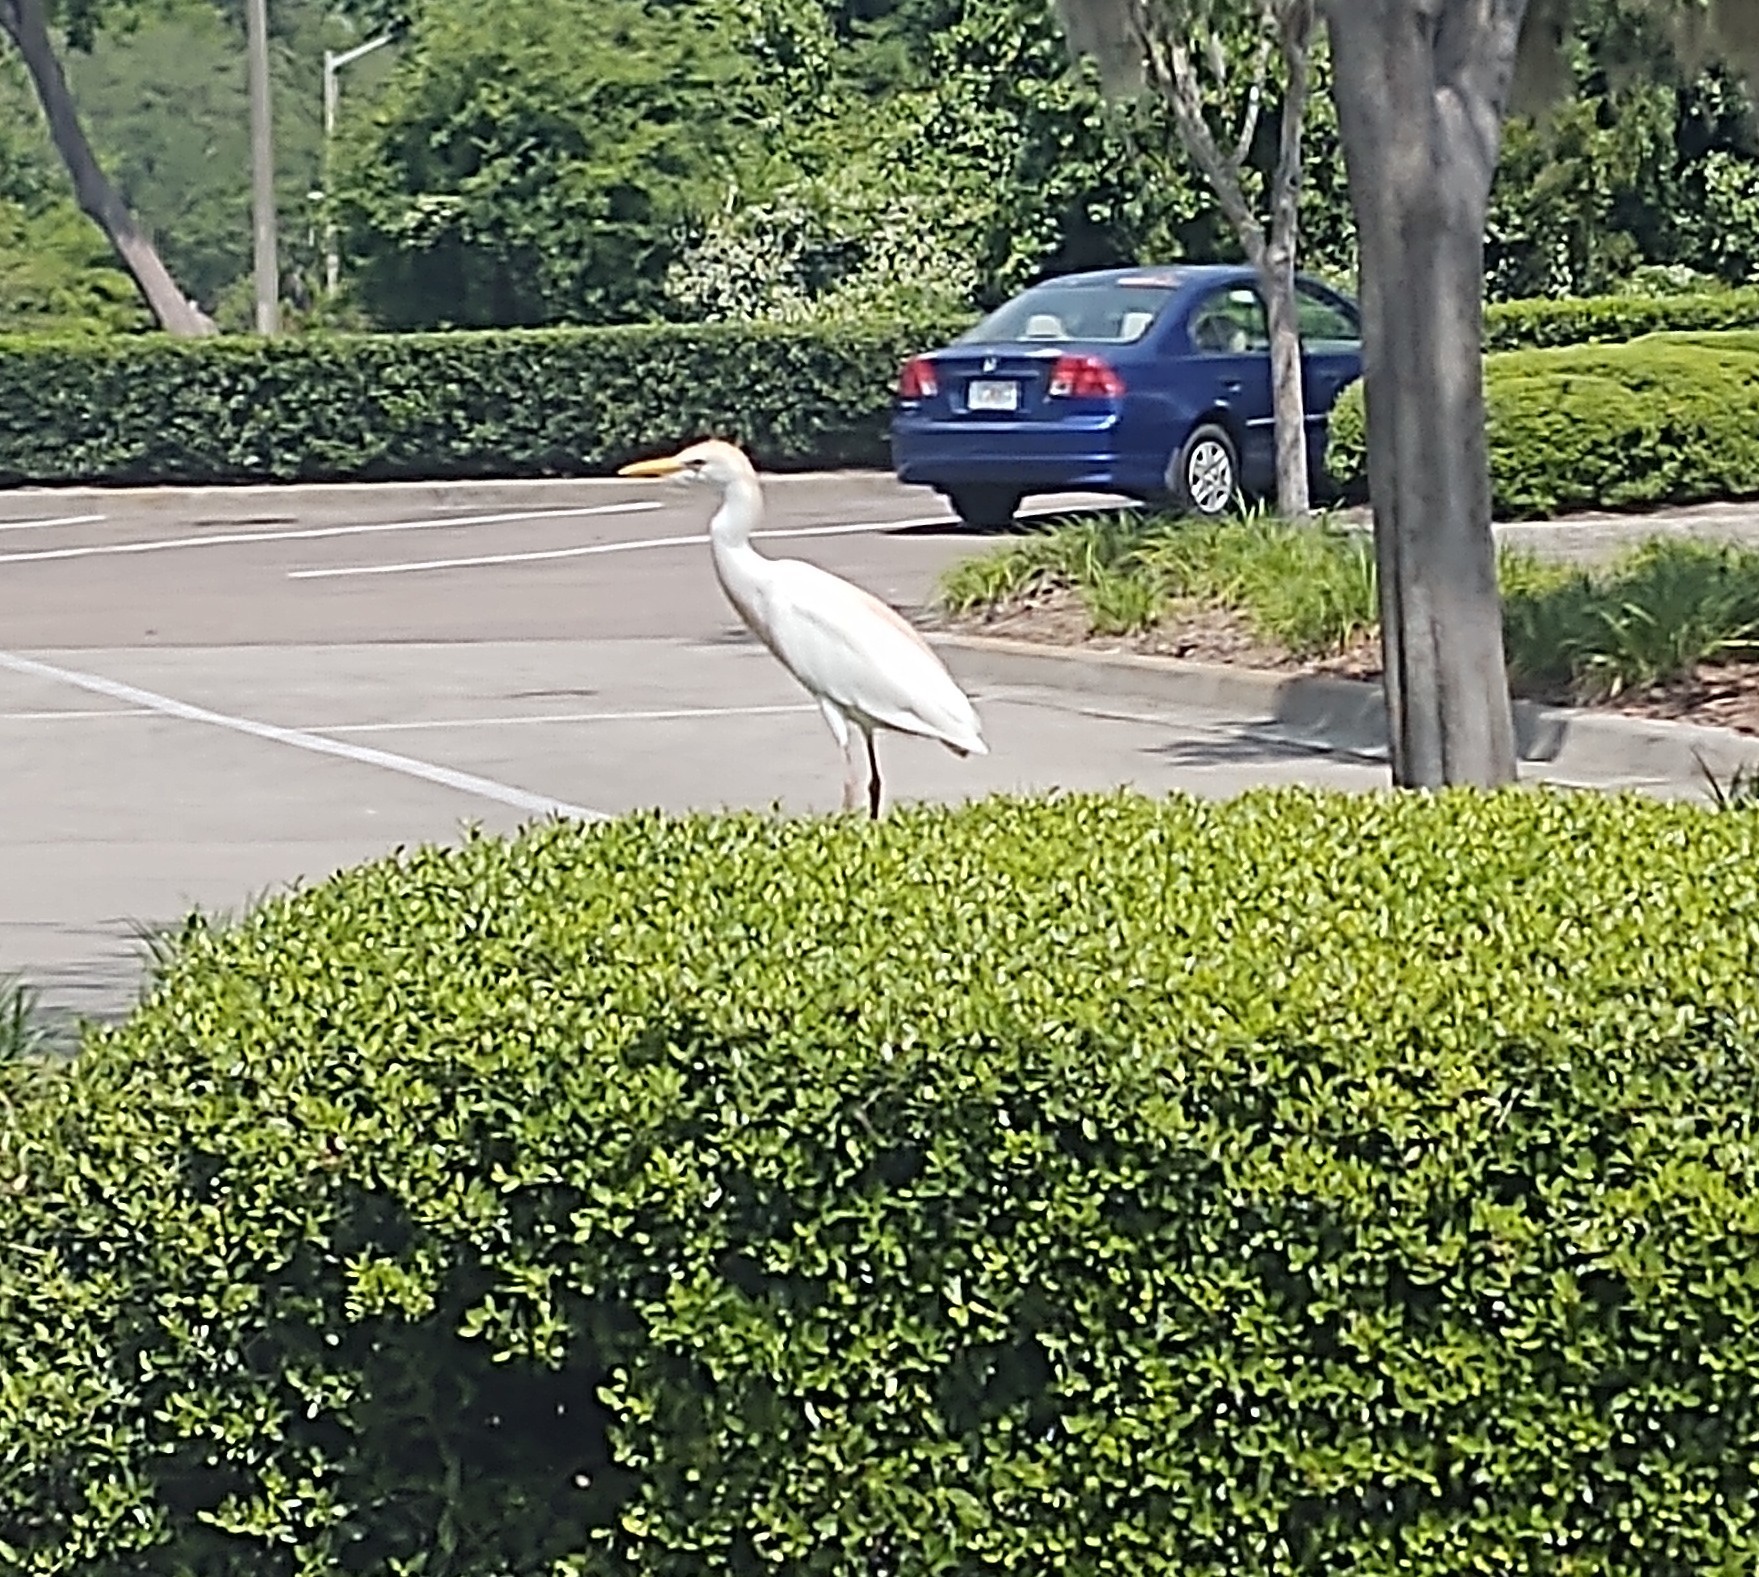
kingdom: Animalia
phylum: Chordata
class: Aves
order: Pelecaniformes
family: Ardeidae
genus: Bubulcus
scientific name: Bubulcus ibis
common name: Cattle egret
